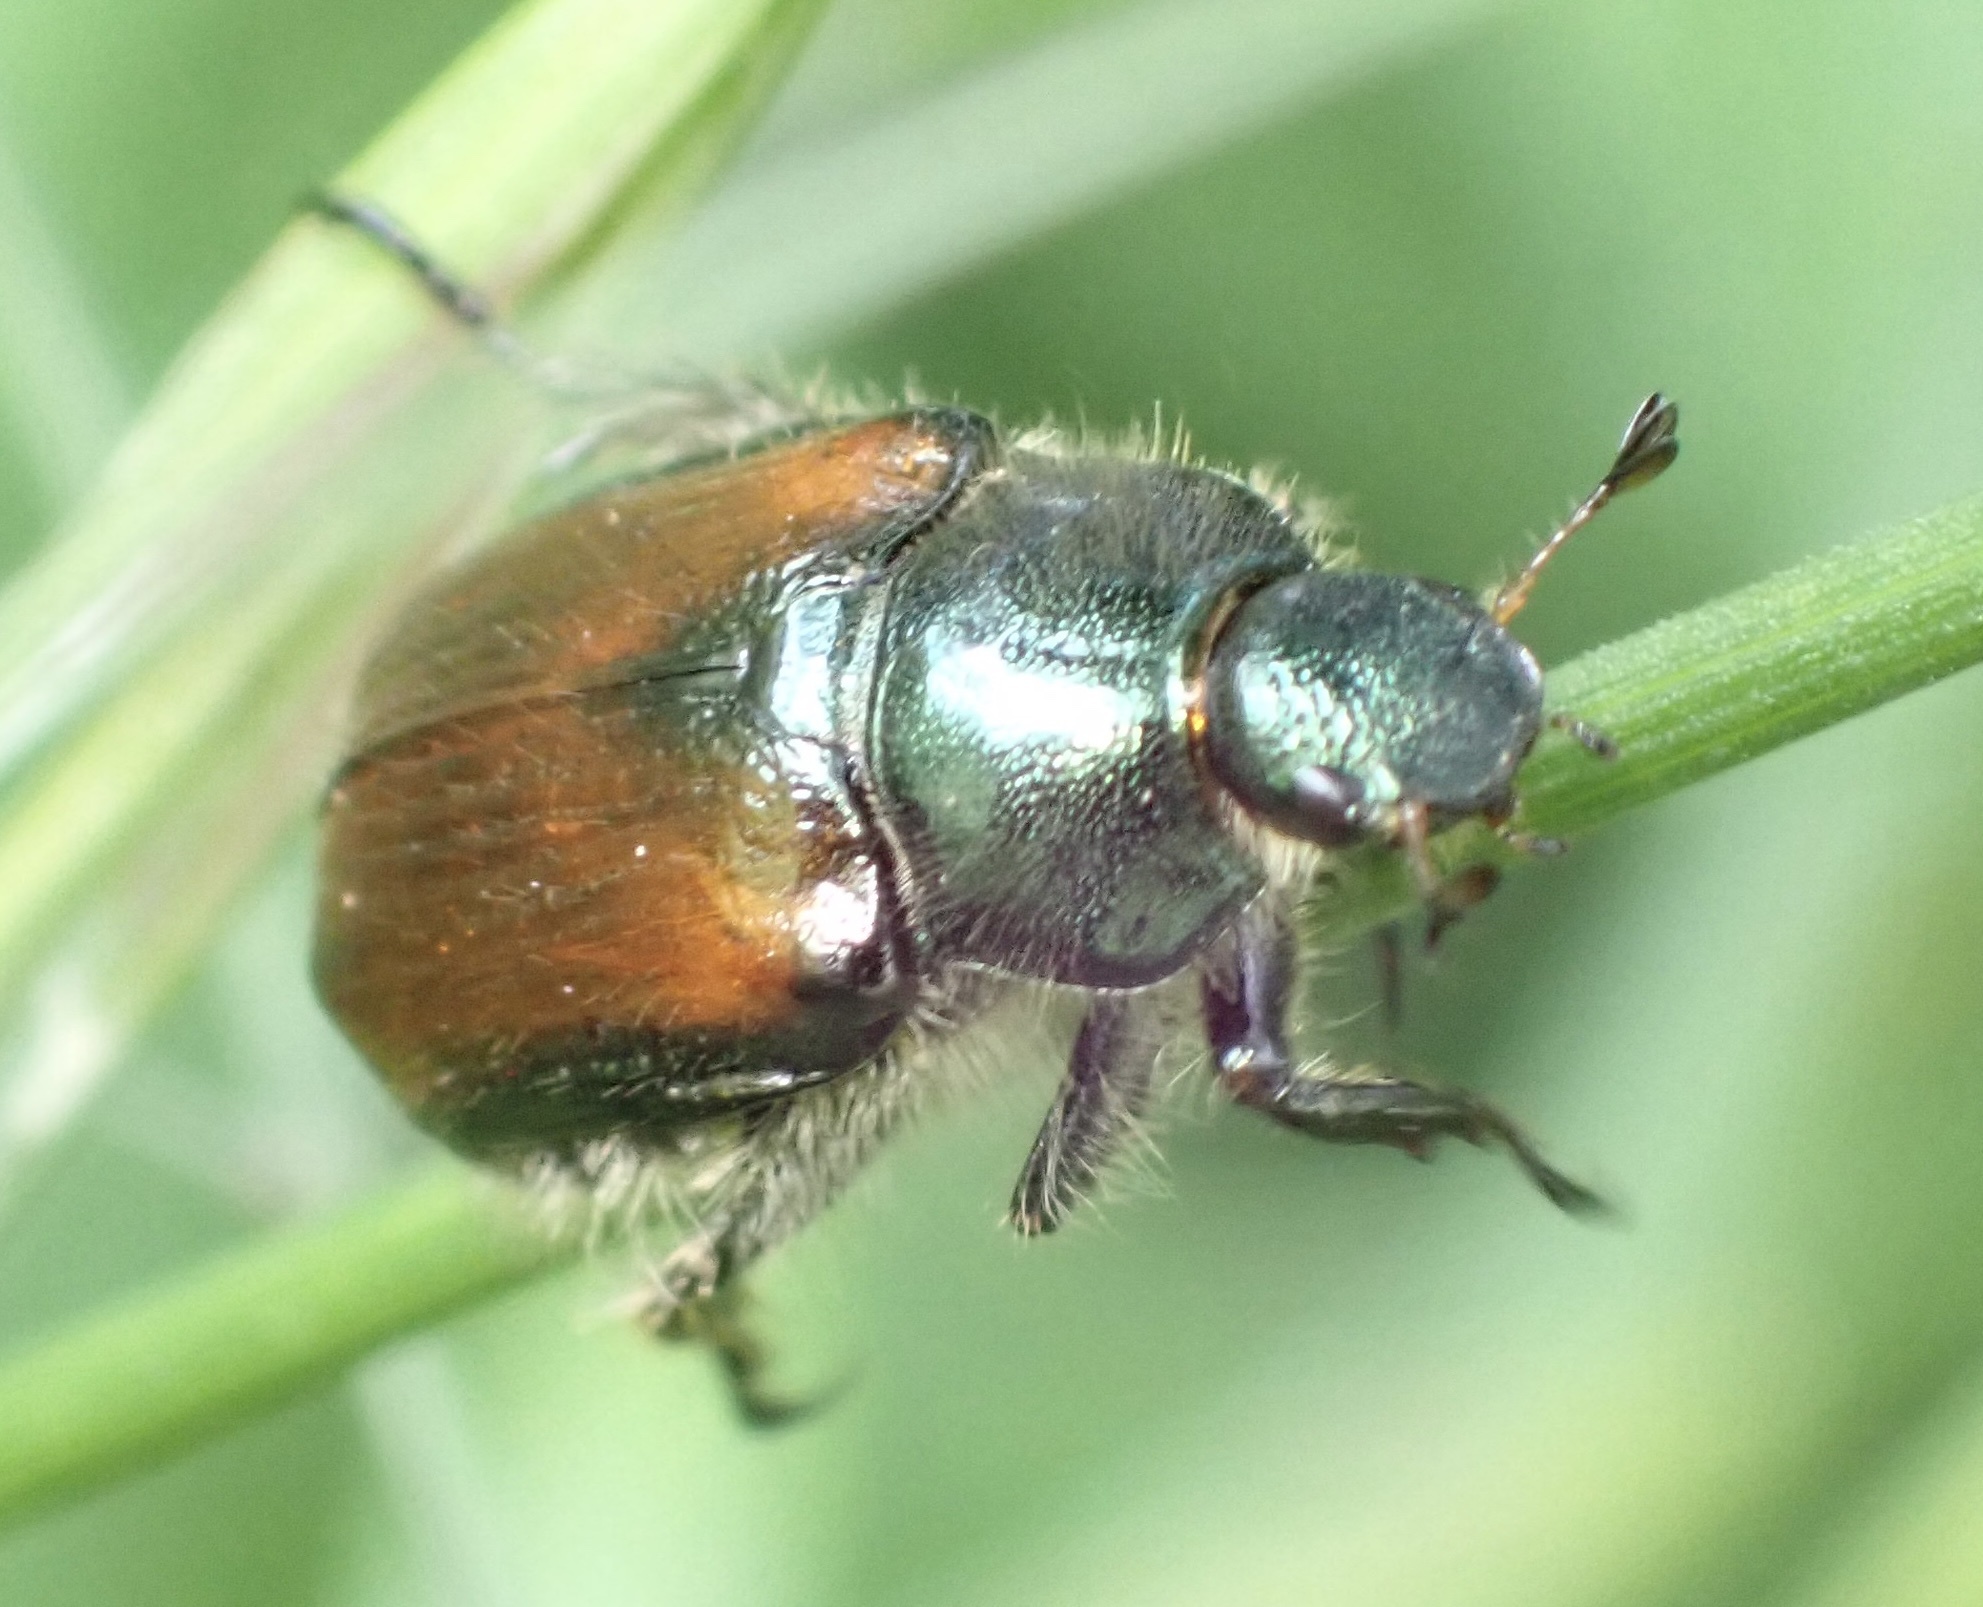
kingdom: Animalia
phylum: Arthropoda
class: Insecta
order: Coleoptera
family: Scarabaeidae
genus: Phyllopertha
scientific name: Phyllopertha horticola
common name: Garden chafer
